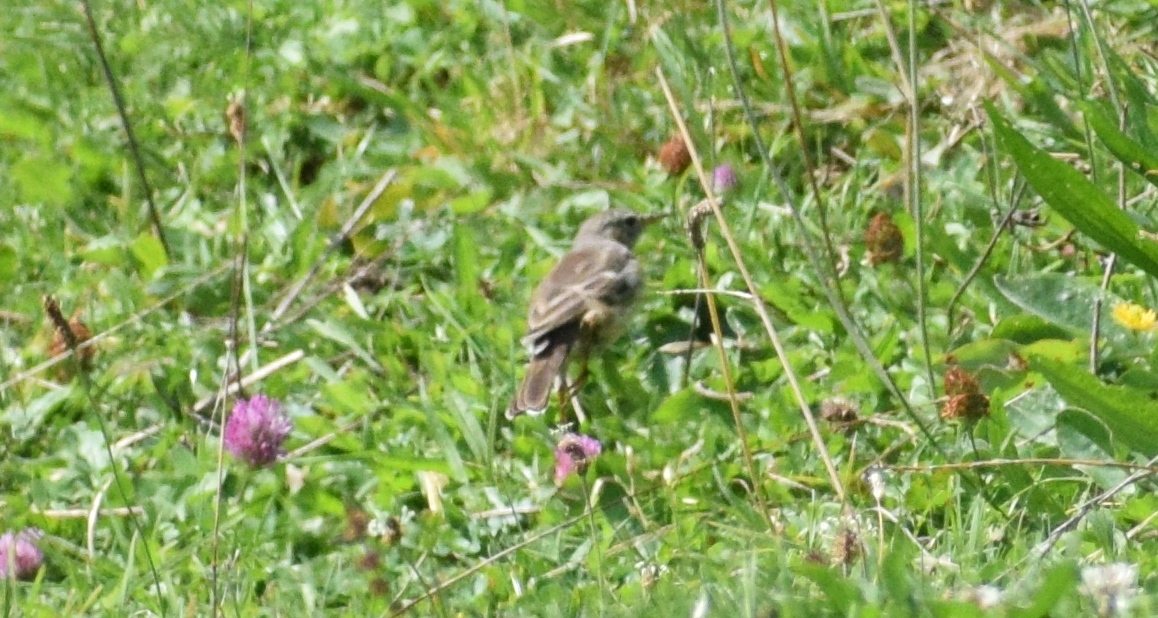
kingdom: Animalia
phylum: Chordata
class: Aves
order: Passeriformes
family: Motacillidae
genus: Anthus
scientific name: Anthus spinoletta
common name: Water pipit
